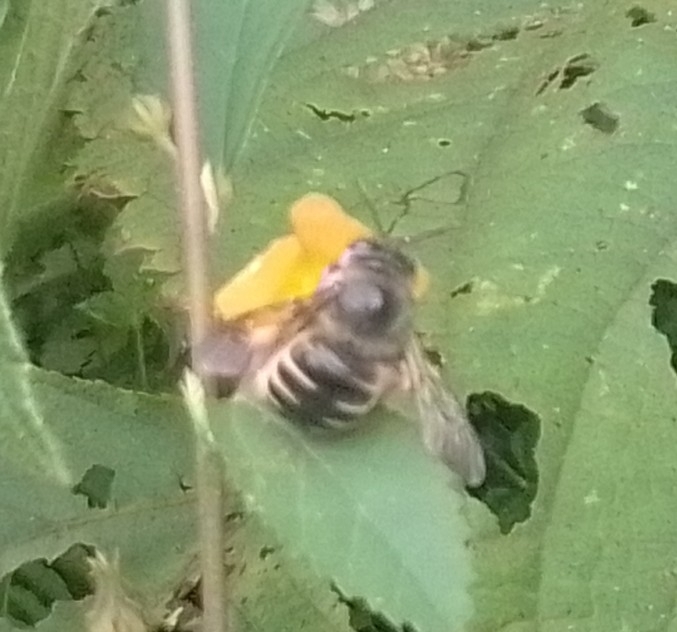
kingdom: Animalia
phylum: Arthropoda
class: Insecta
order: Hymenoptera
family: Apidae
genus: Xylocopa
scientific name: Xylocopa tabaniformis
